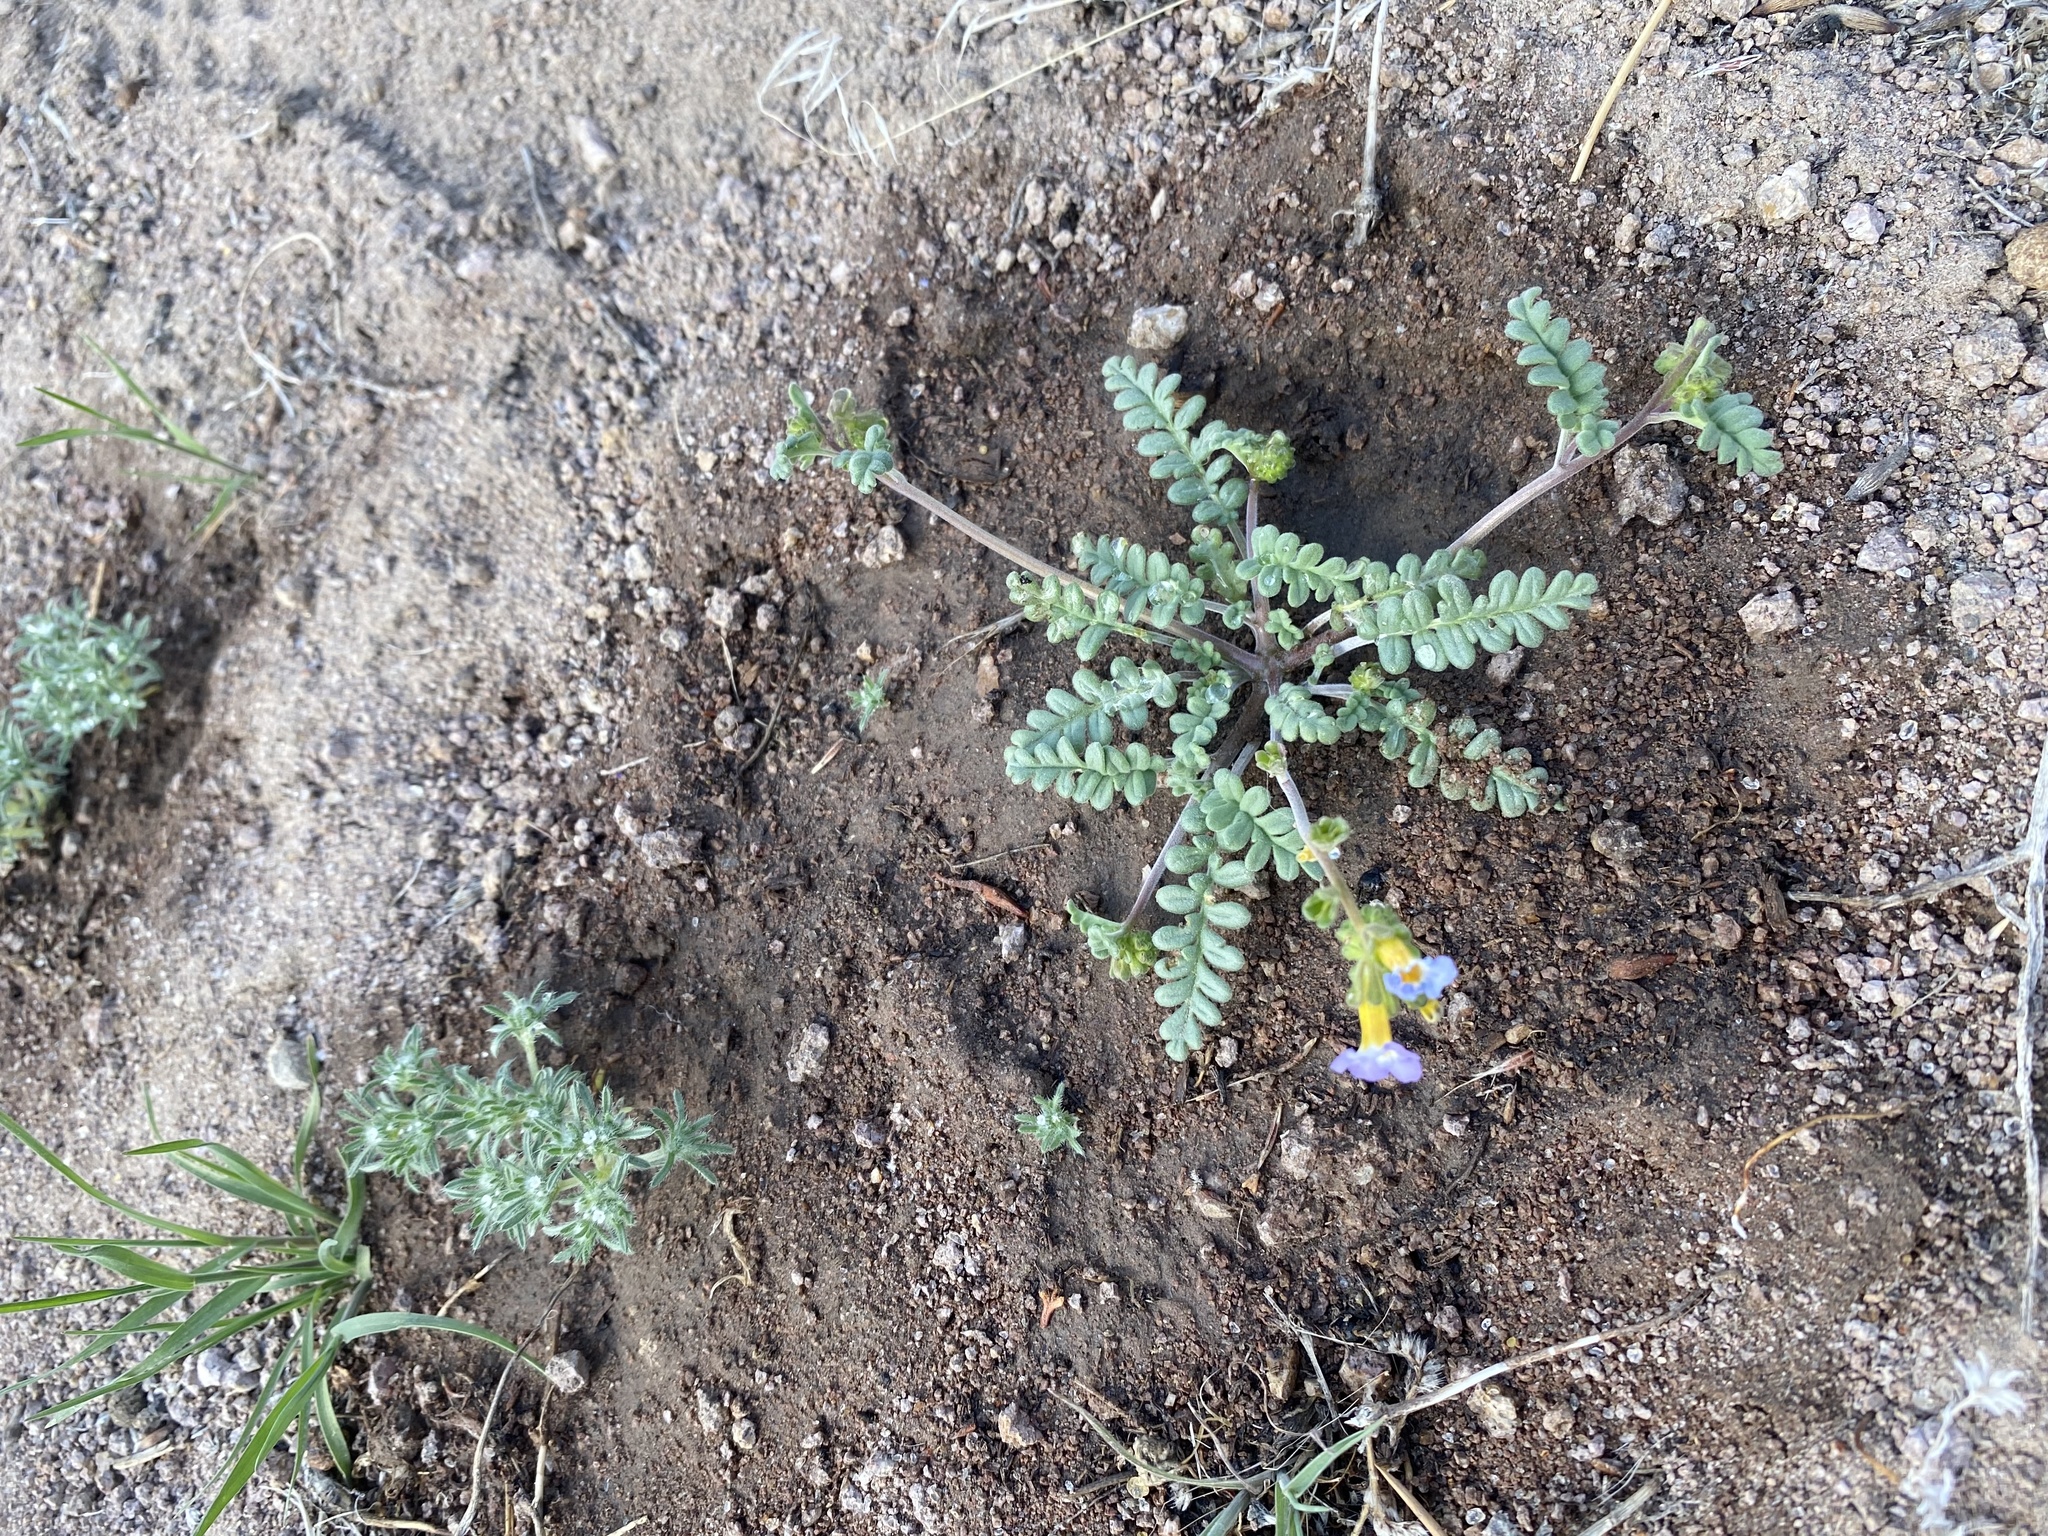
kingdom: Plantae
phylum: Tracheophyta
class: Magnoliopsida
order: Boraginales
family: Hydrophyllaceae
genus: Phacelia
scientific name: Phacelia fremontii
